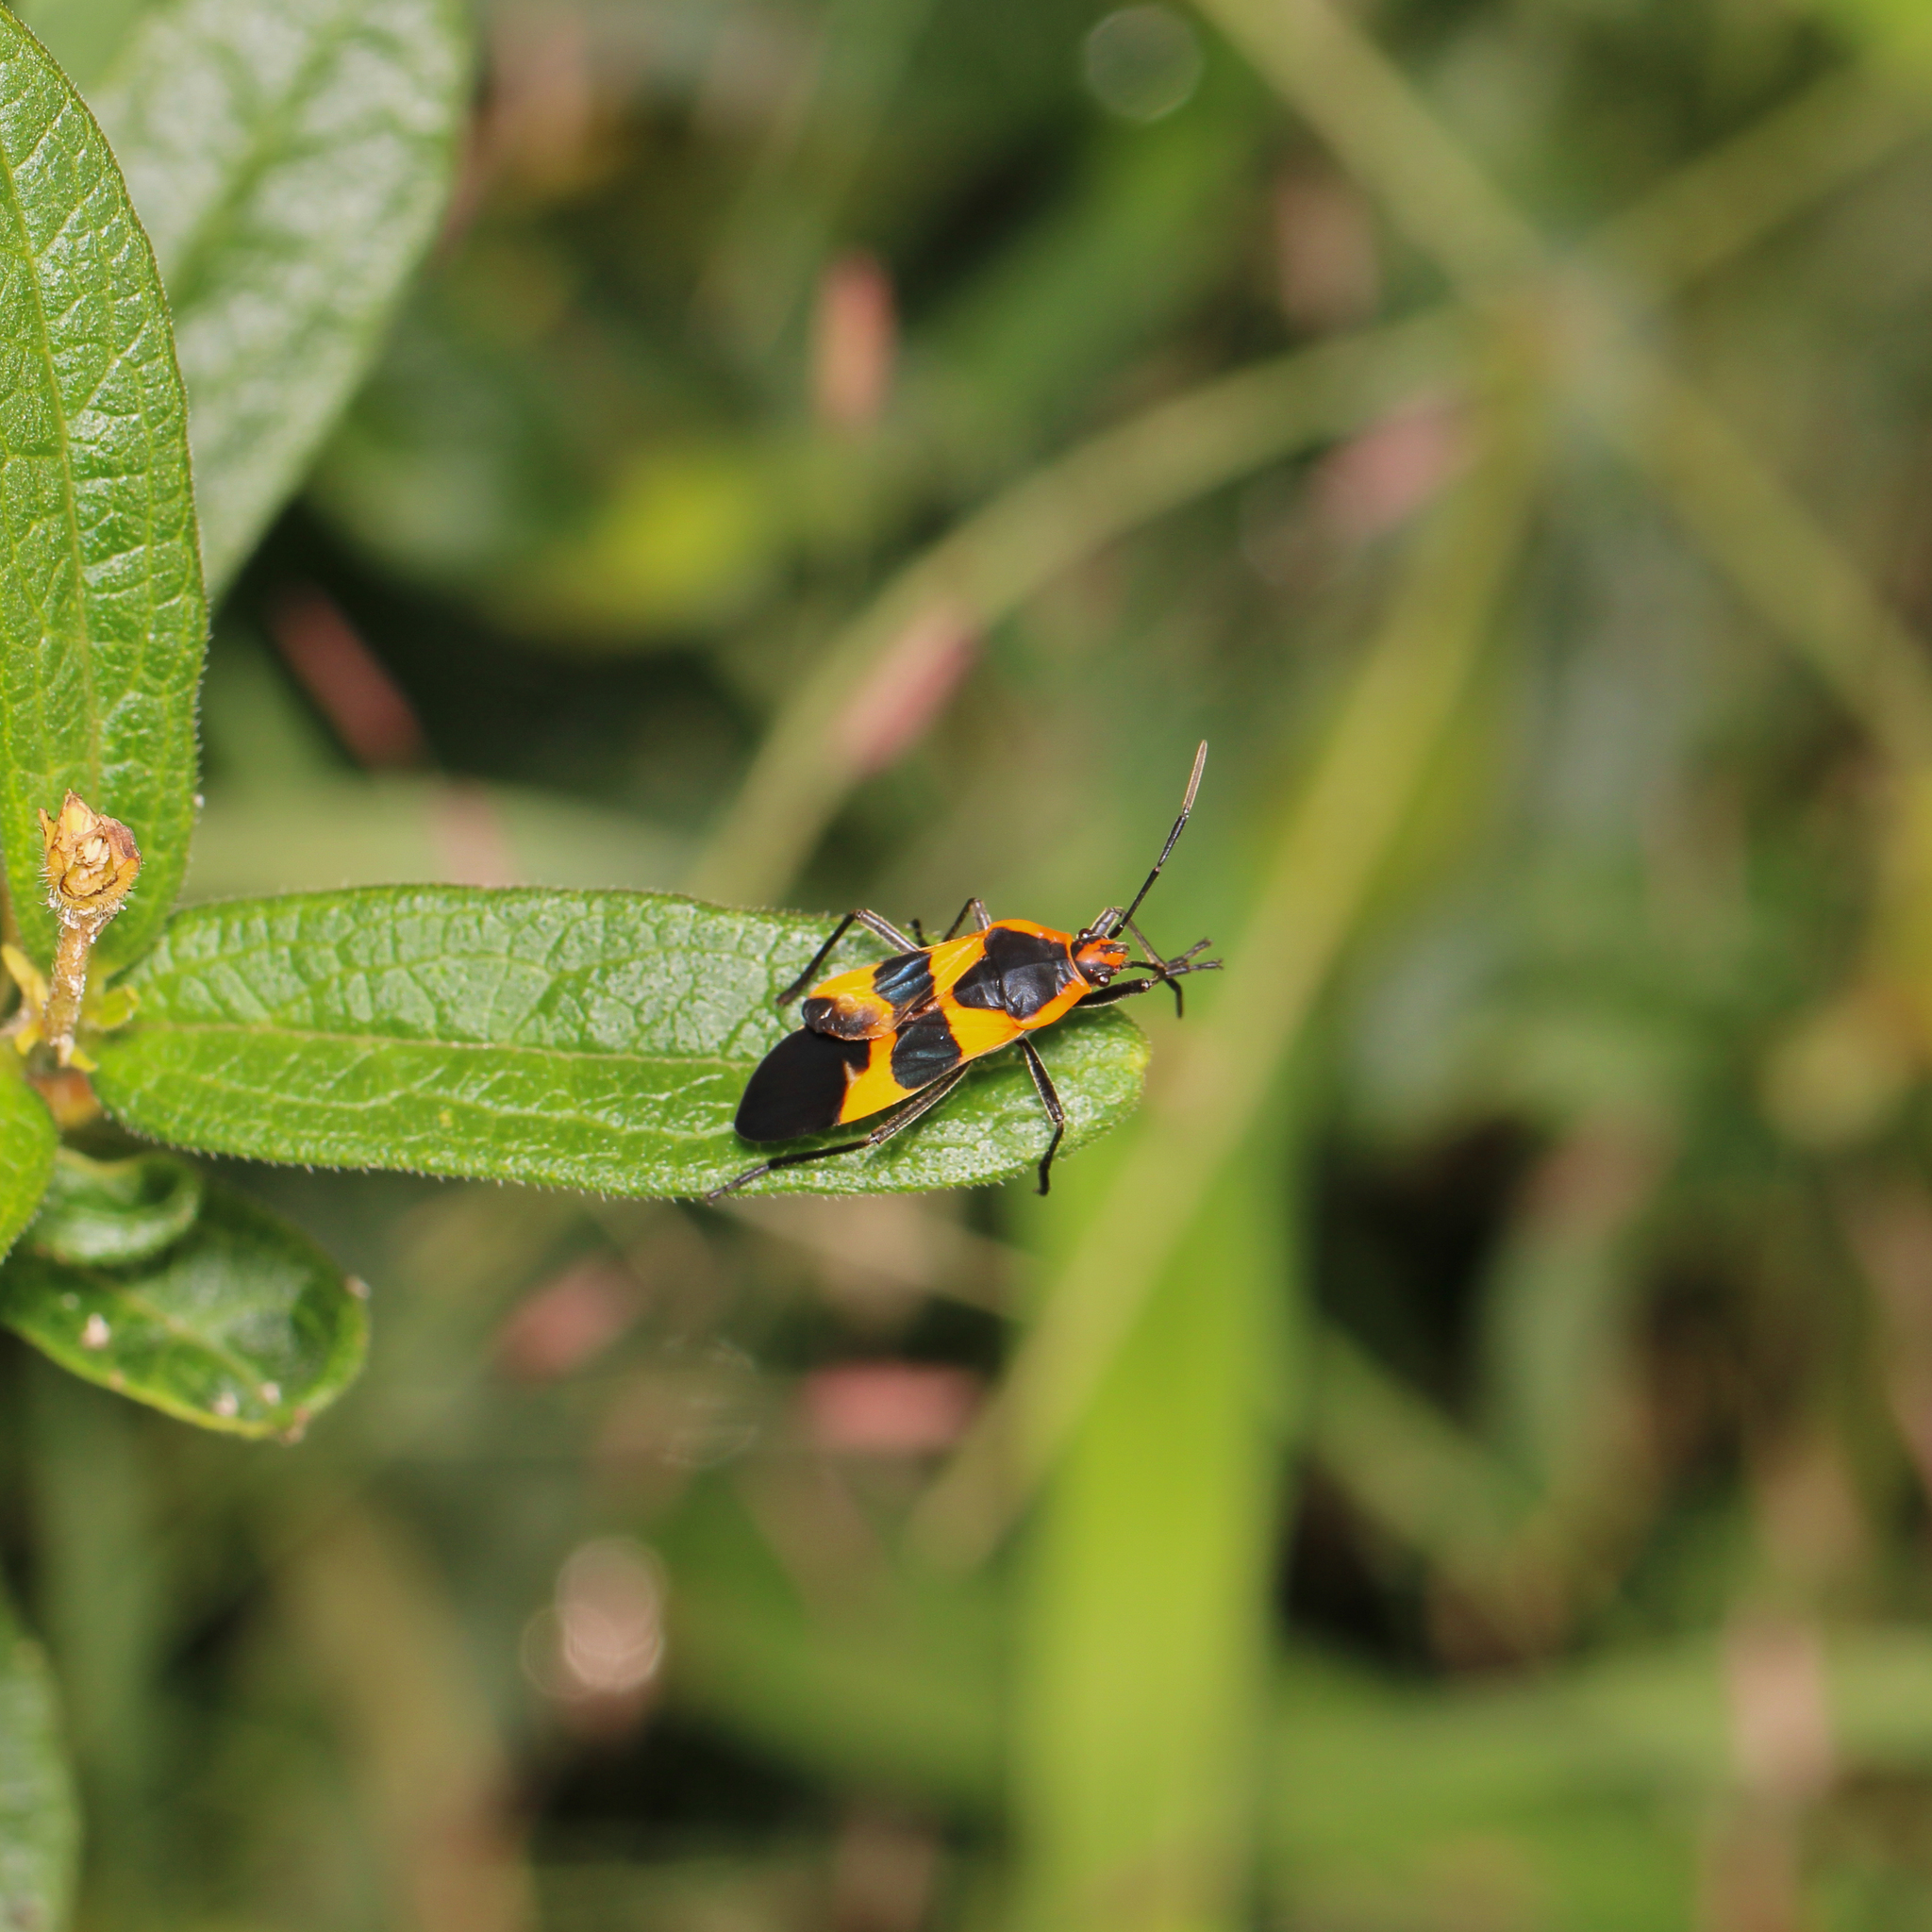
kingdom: Animalia
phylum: Arthropoda
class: Insecta
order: Hemiptera
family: Lygaeidae
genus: Oncopeltus
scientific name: Oncopeltus fasciatus
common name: Large milkweed bug
